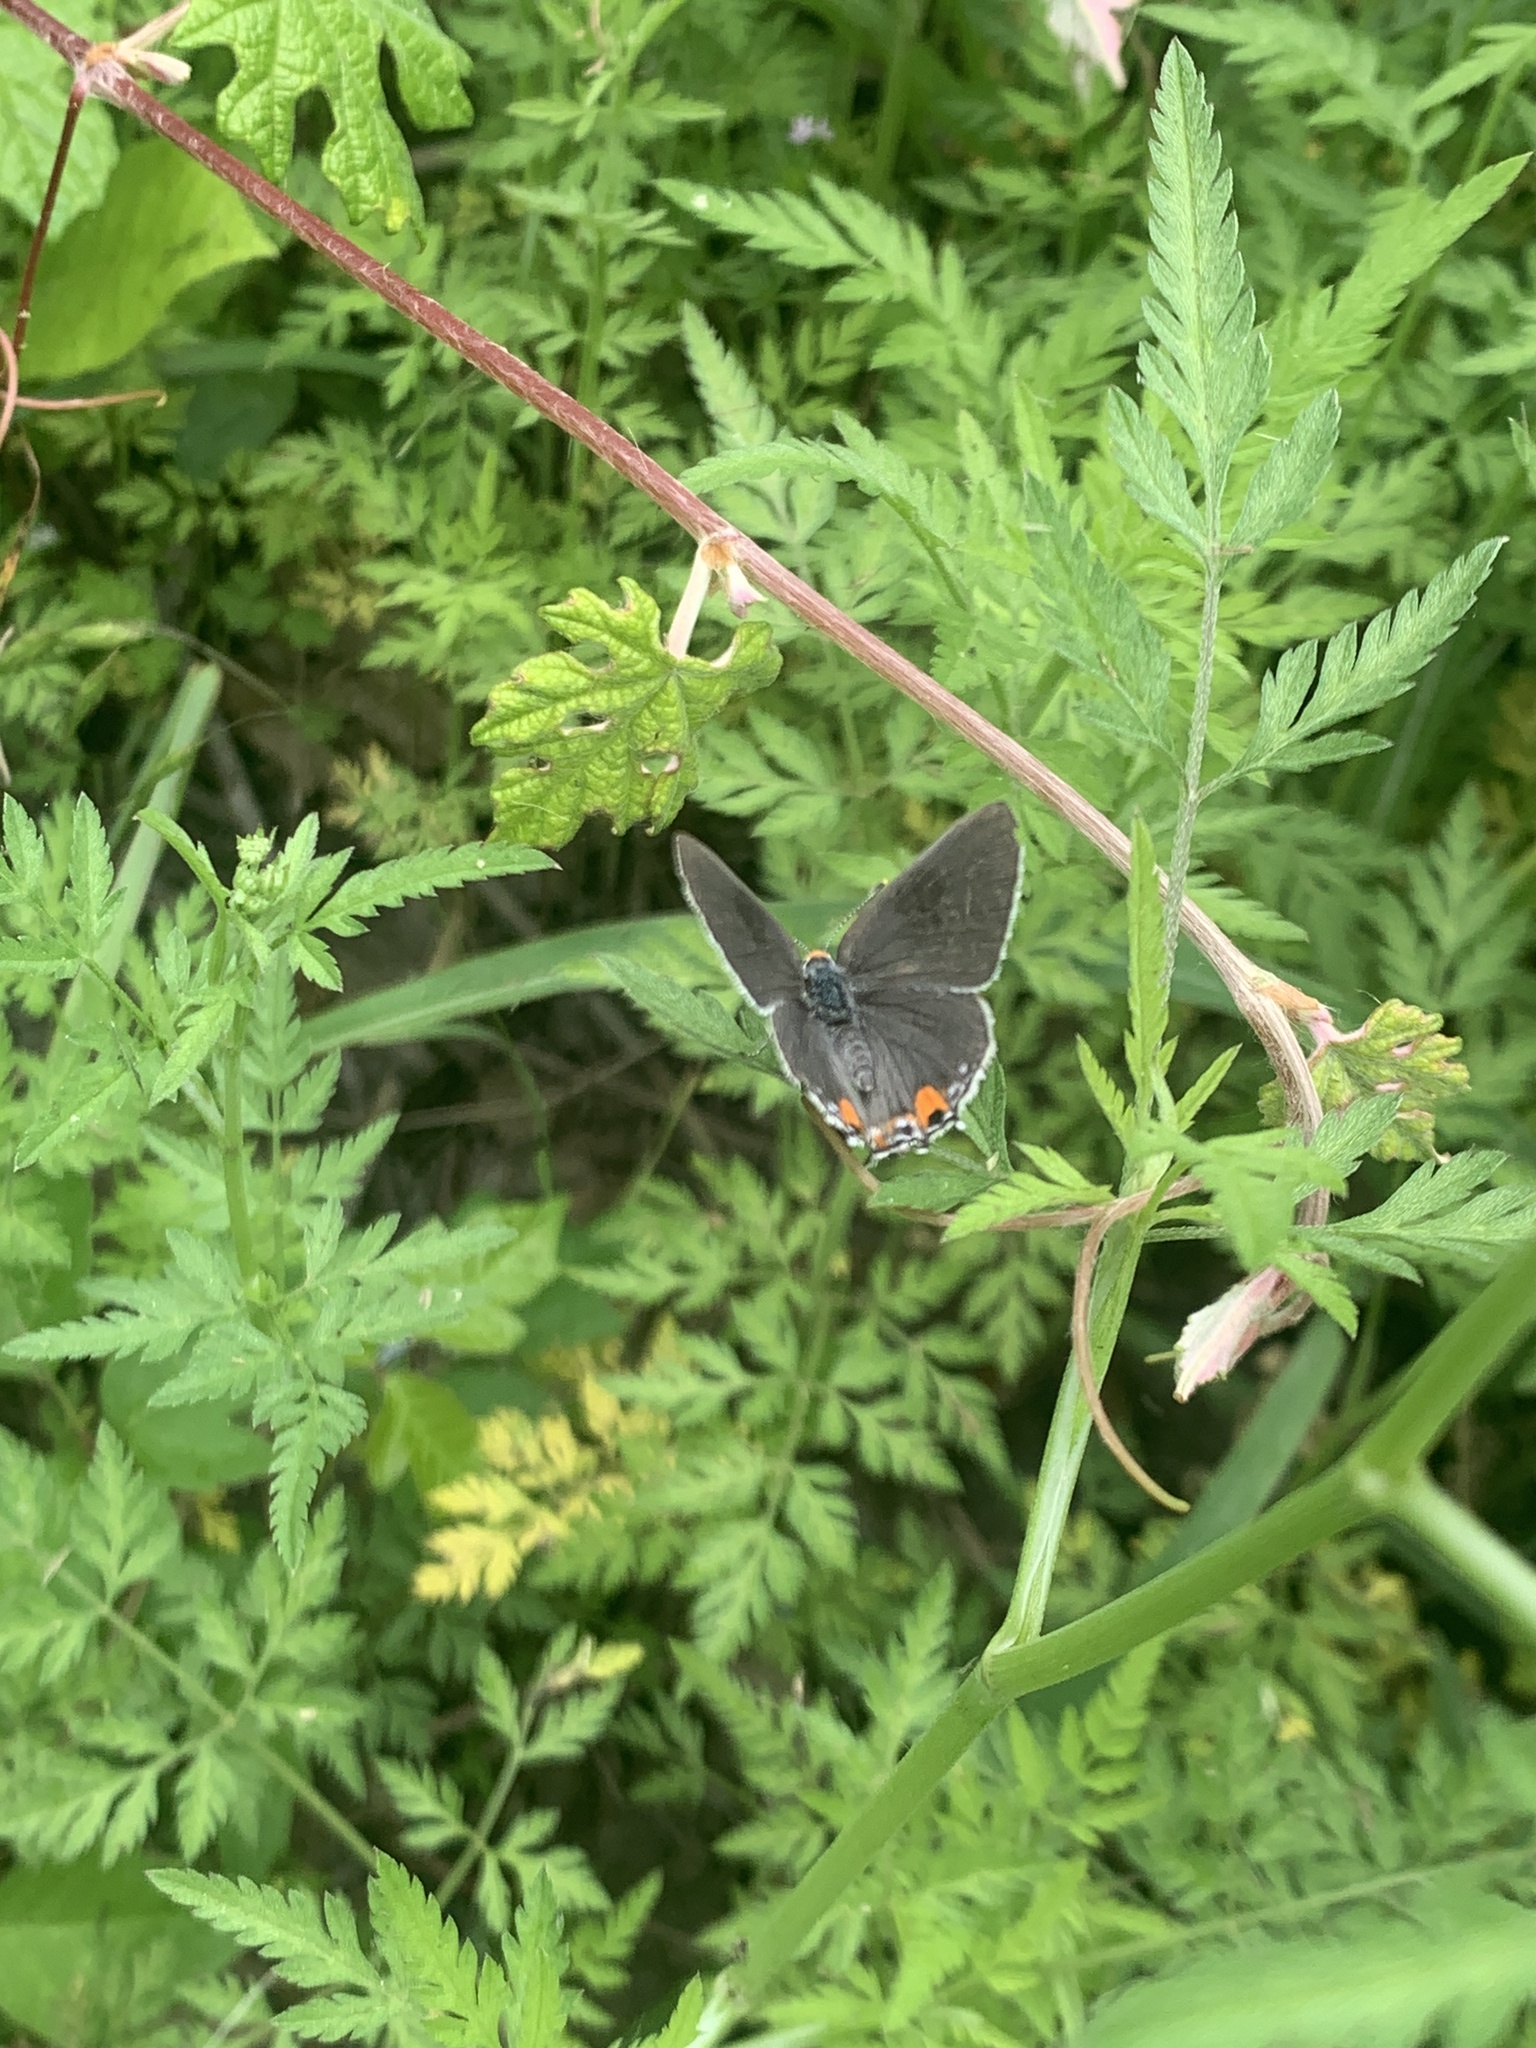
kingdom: Animalia
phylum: Arthropoda
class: Insecta
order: Lepidoptera
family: Lycaenidae
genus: Strymon
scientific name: Strymon melinus
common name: Gray hairstreak
